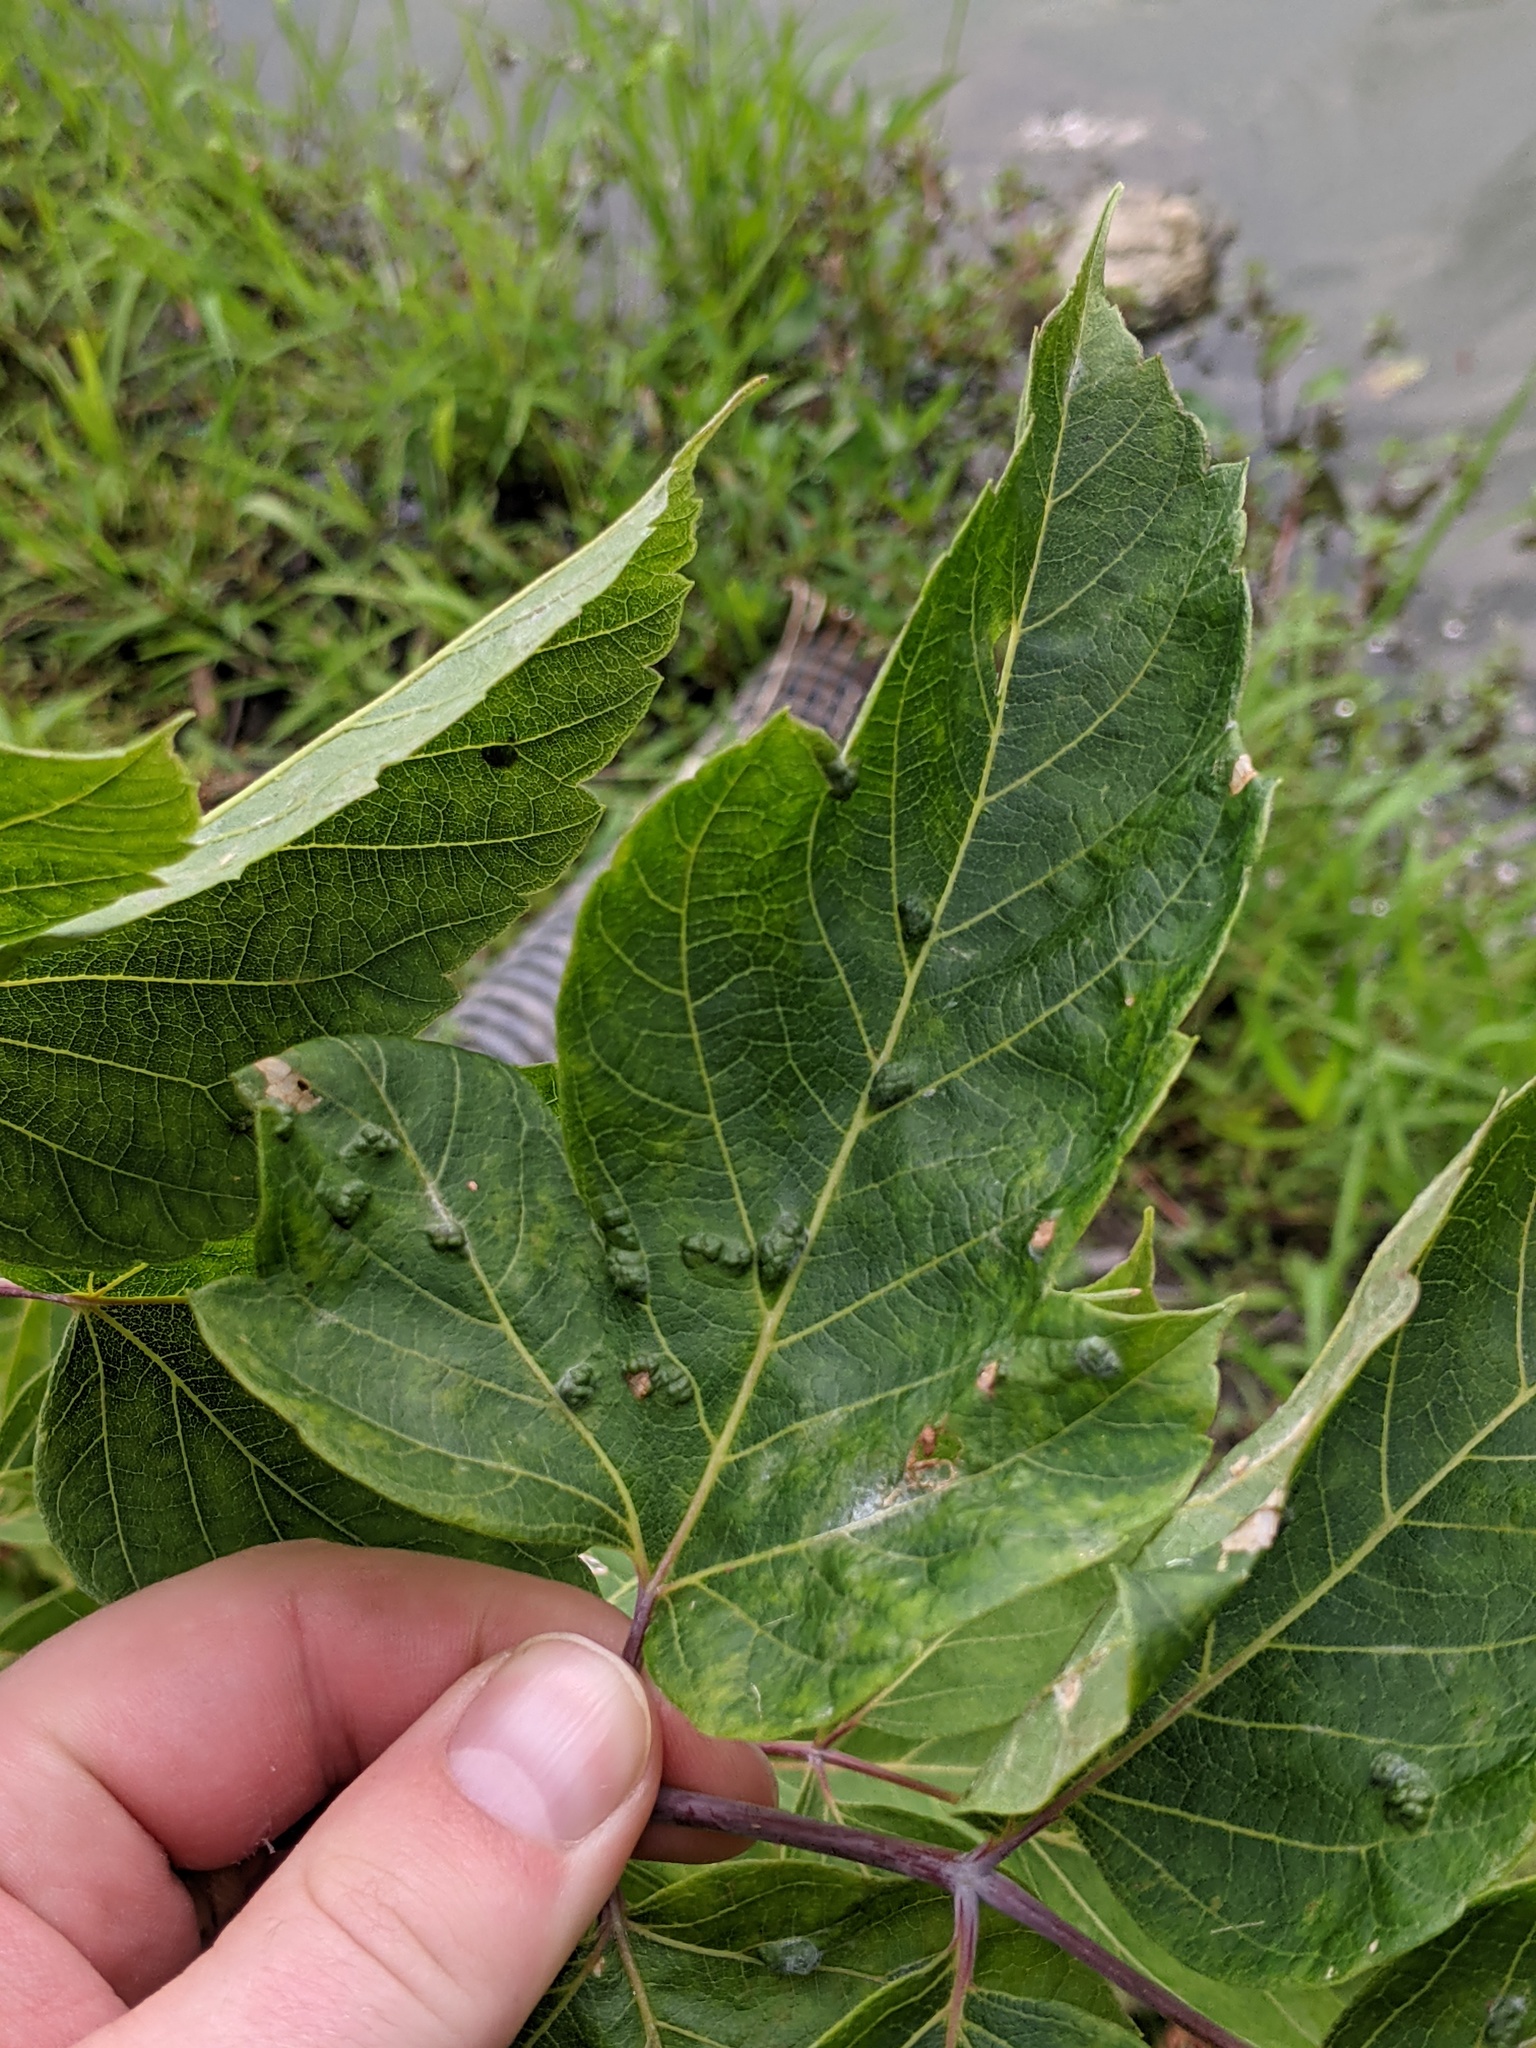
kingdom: Animalia
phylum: Arthropoda
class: Arachnida
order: Trombidiformes
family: Eriophyidae
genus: Aceria
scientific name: Aceria
